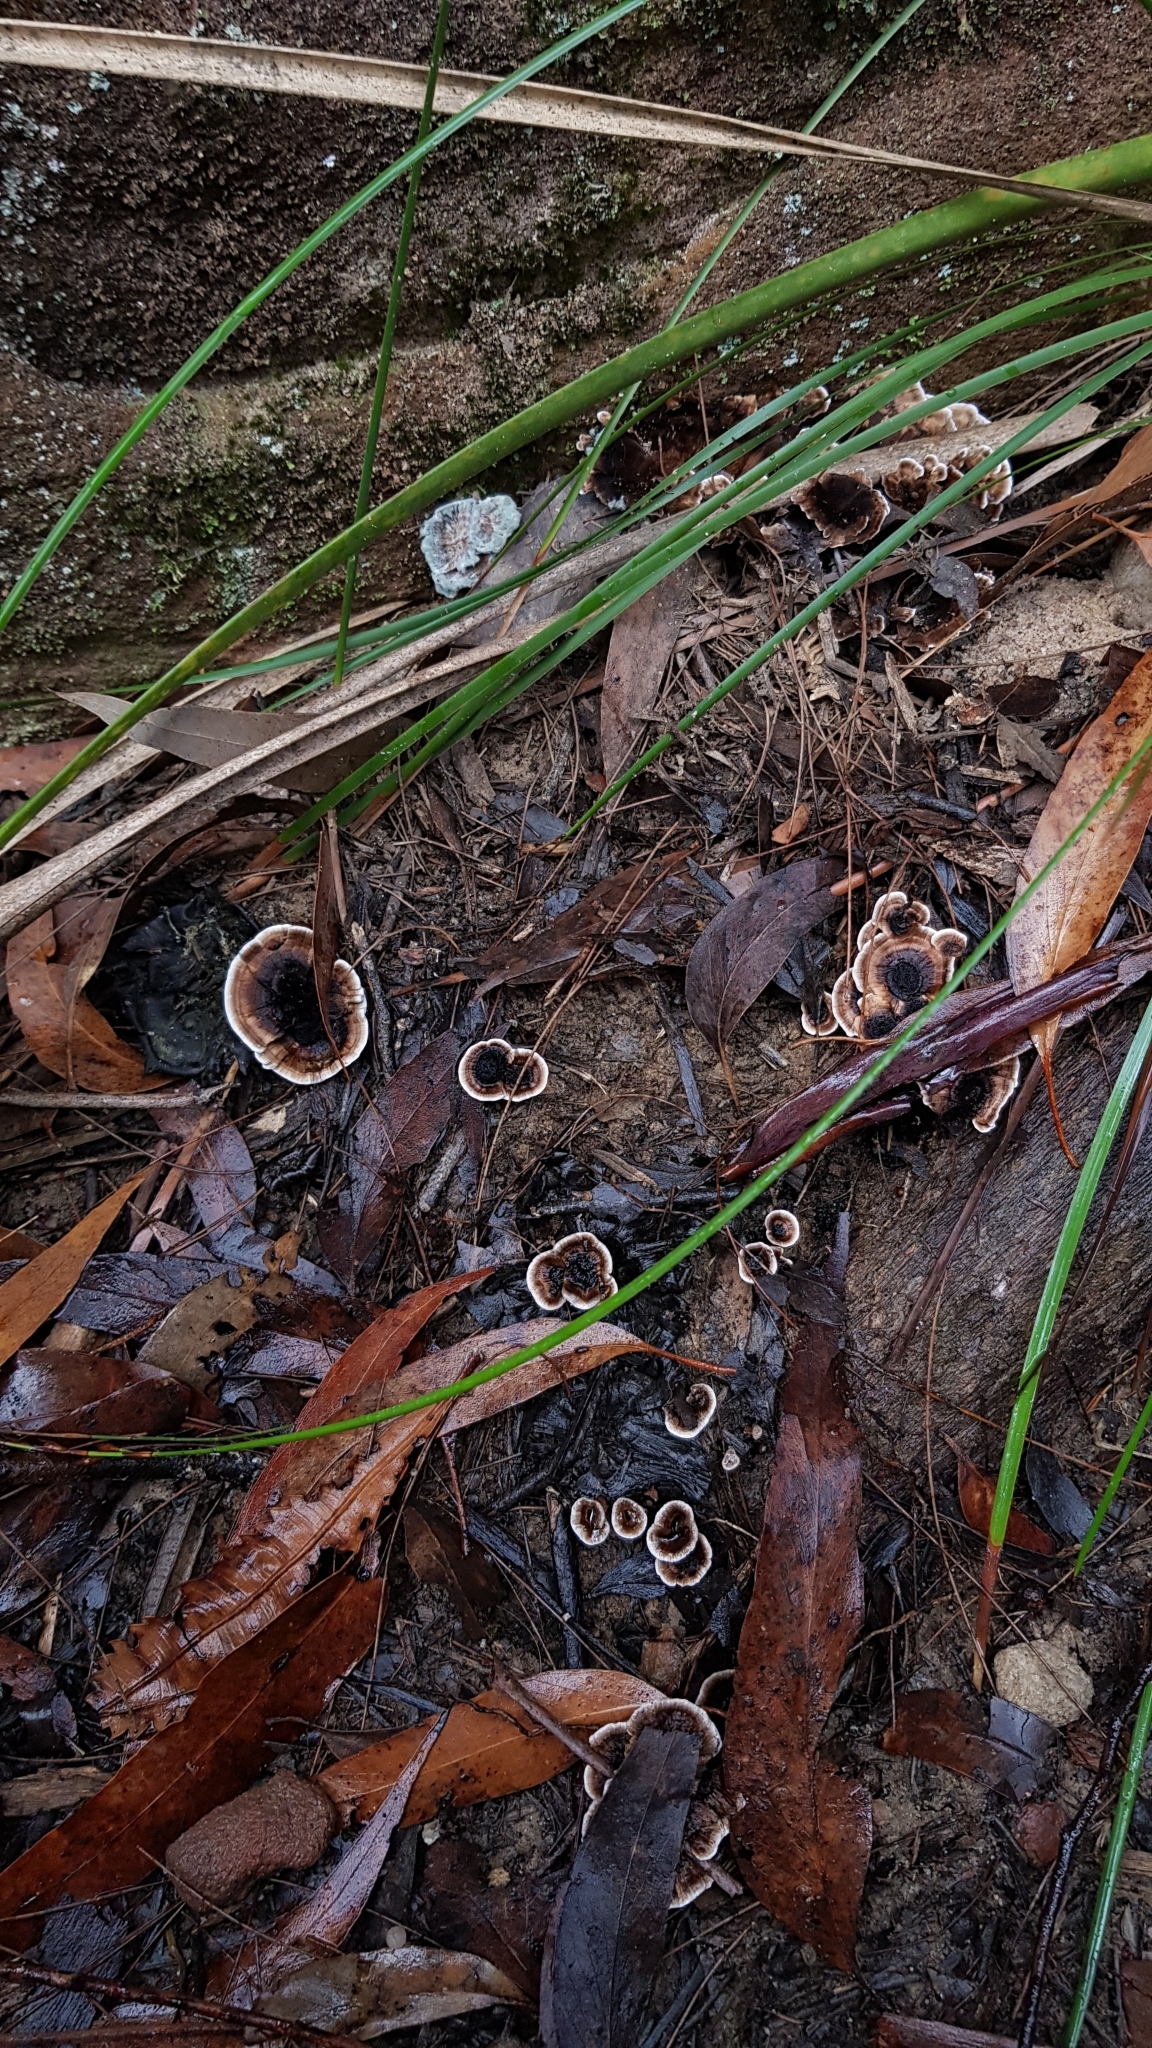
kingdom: Fungi
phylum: Basidiomycota
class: Agaricomycetes
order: Thelephorales
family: Bankeraceae
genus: Hydnellum
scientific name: Hydnellum auratile
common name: Gold tooth
